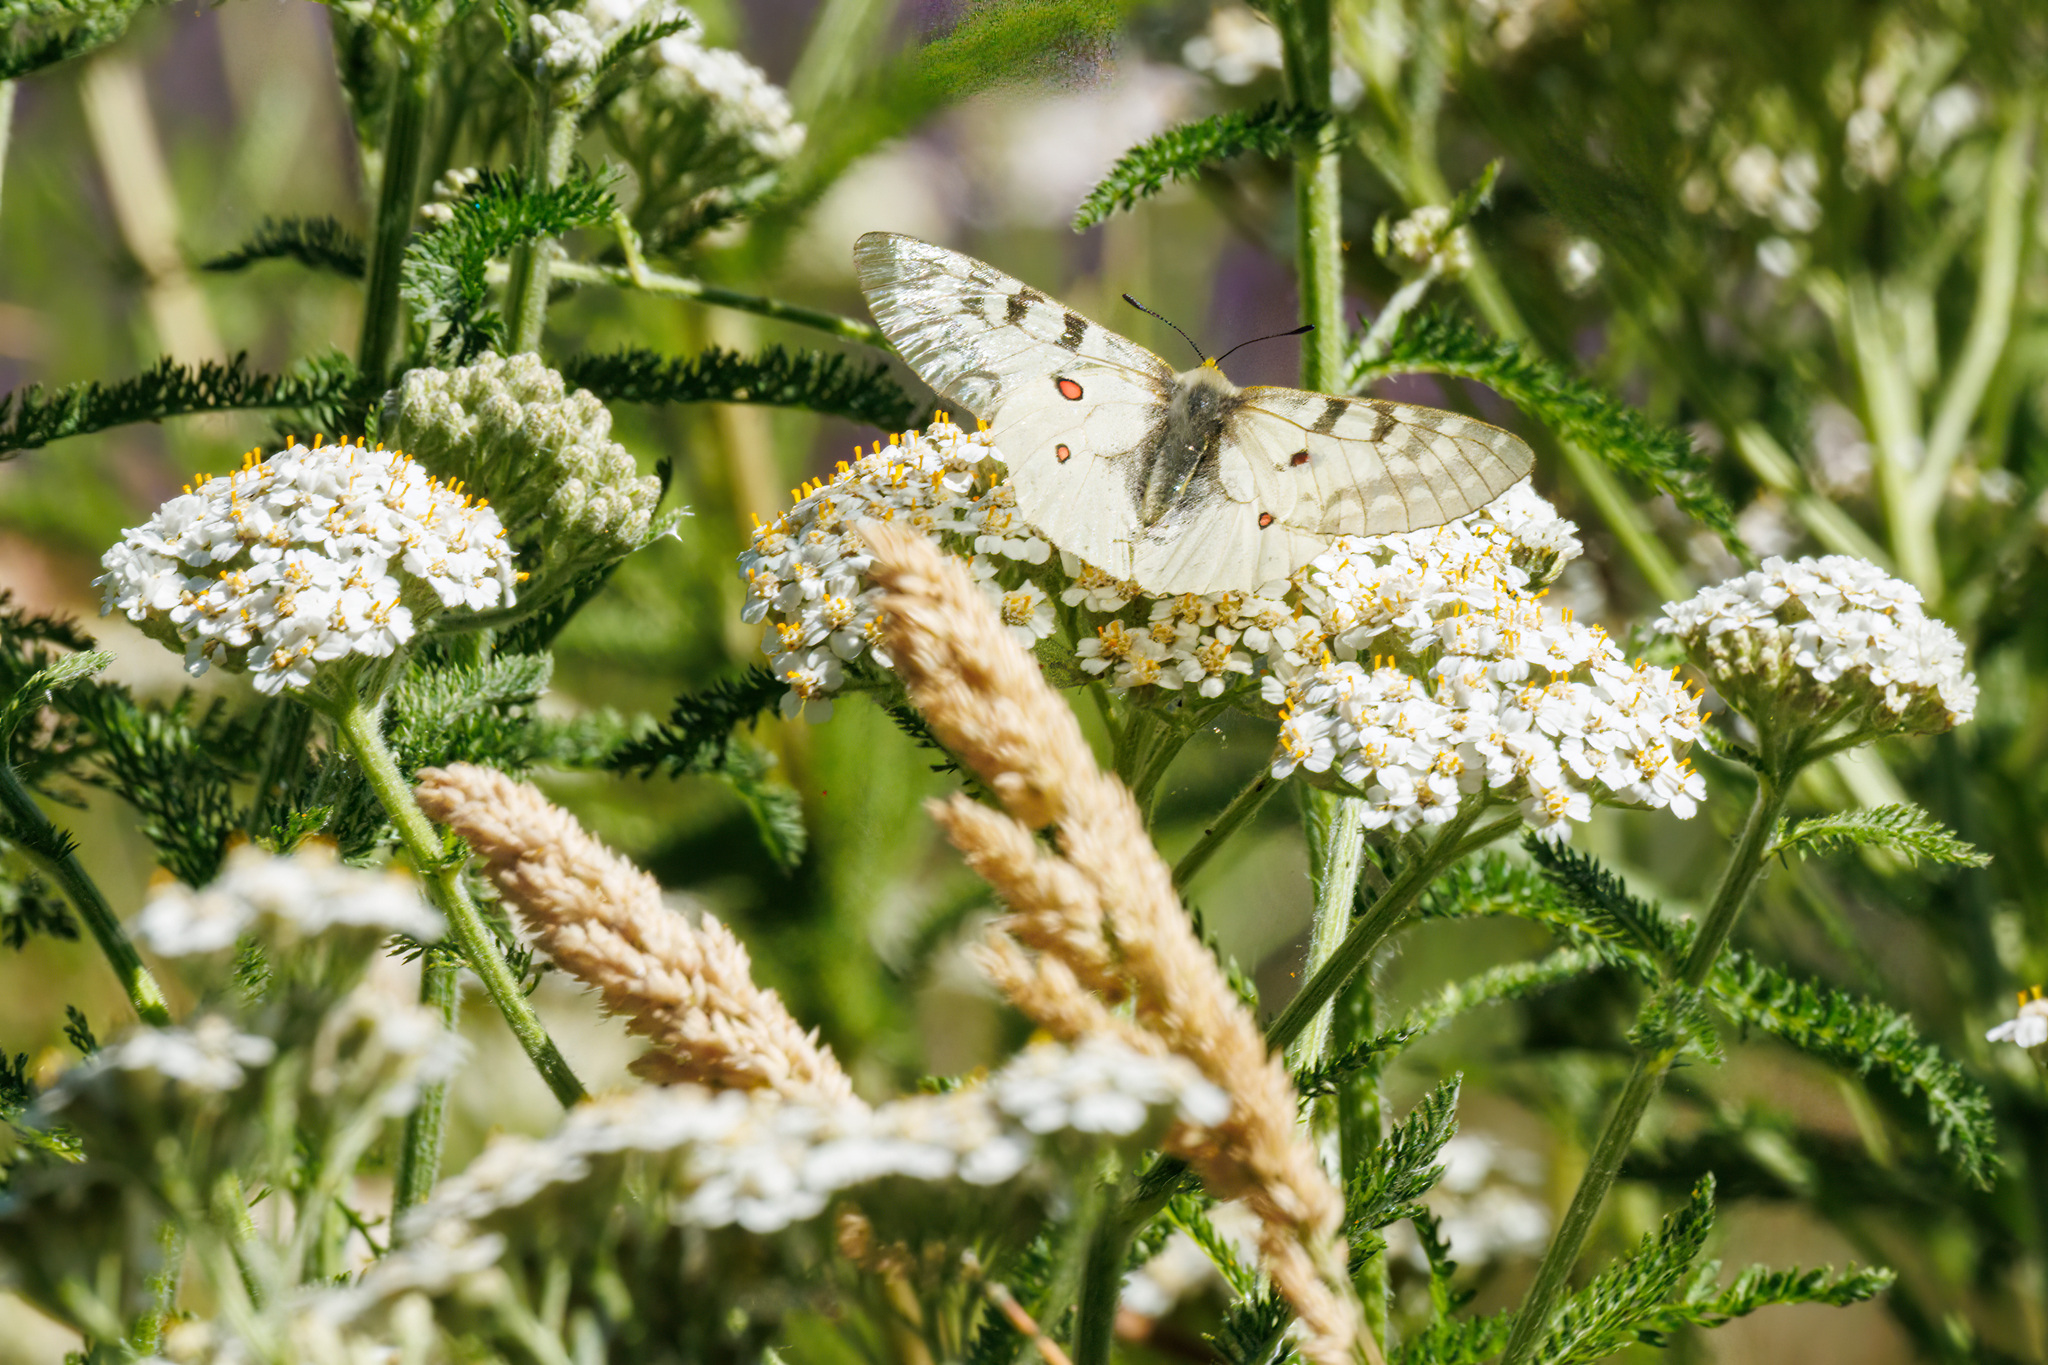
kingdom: Animalia
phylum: Arthropoda
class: Insecta
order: Lepidoptera
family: Papilionidae
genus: Parnassius
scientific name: Parnassius clodius
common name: American apollo
